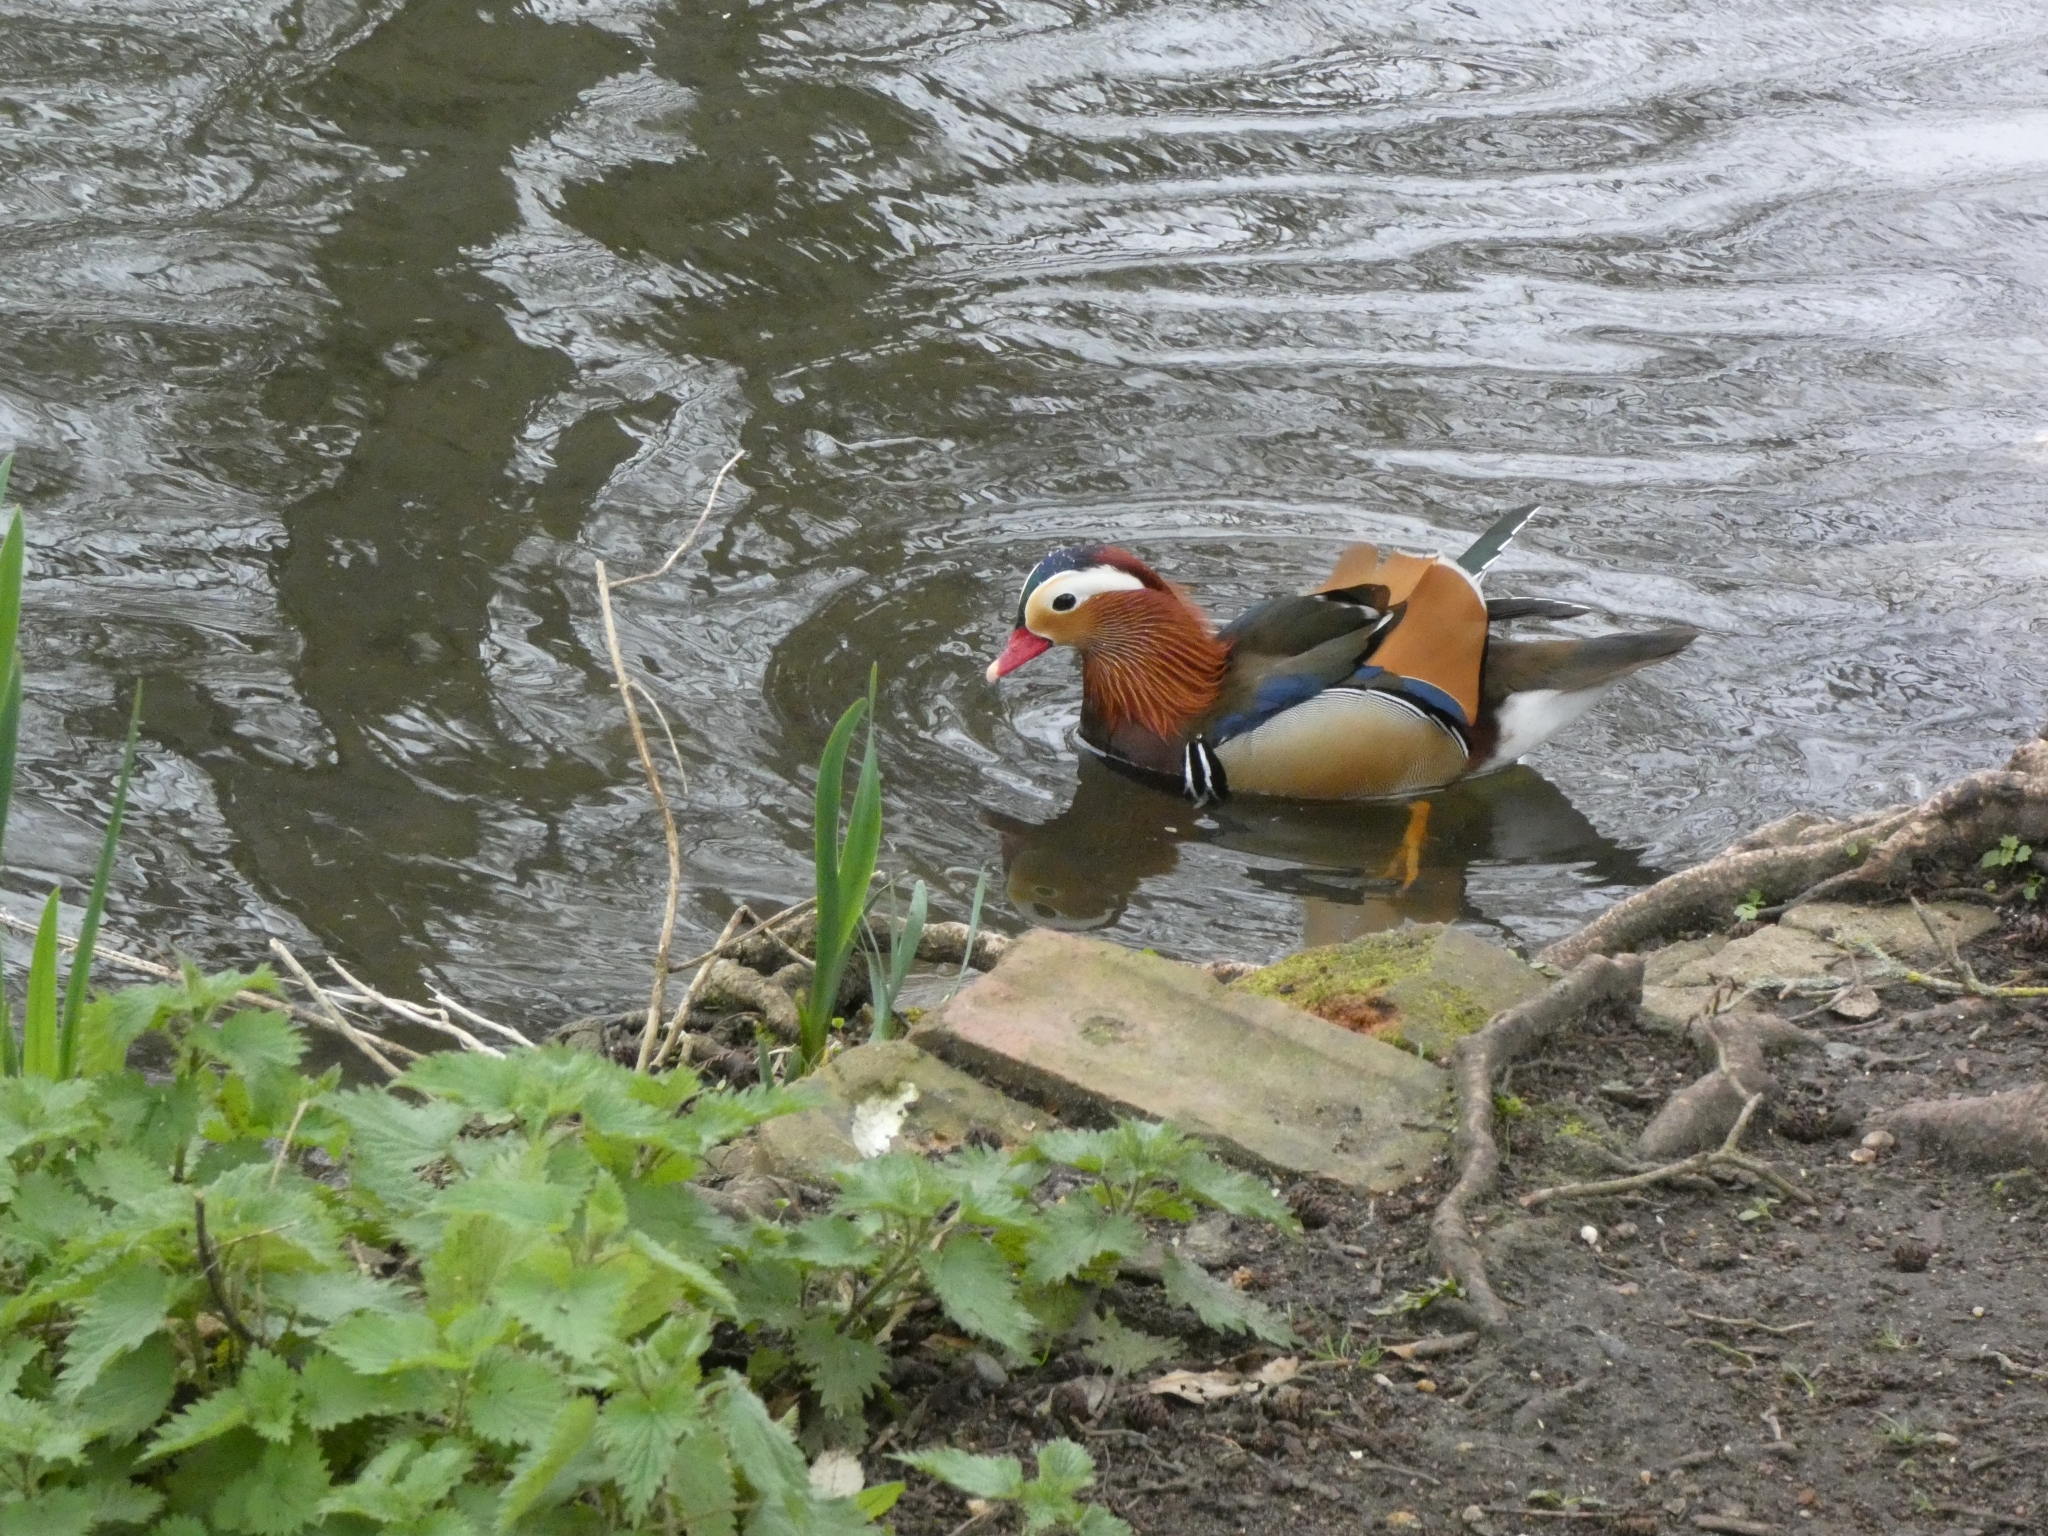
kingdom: Animalia
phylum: Chordata
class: Aves
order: Anseriformes
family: Anatidae
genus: Aix
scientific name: Aix galericulata
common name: Mandarin duck
